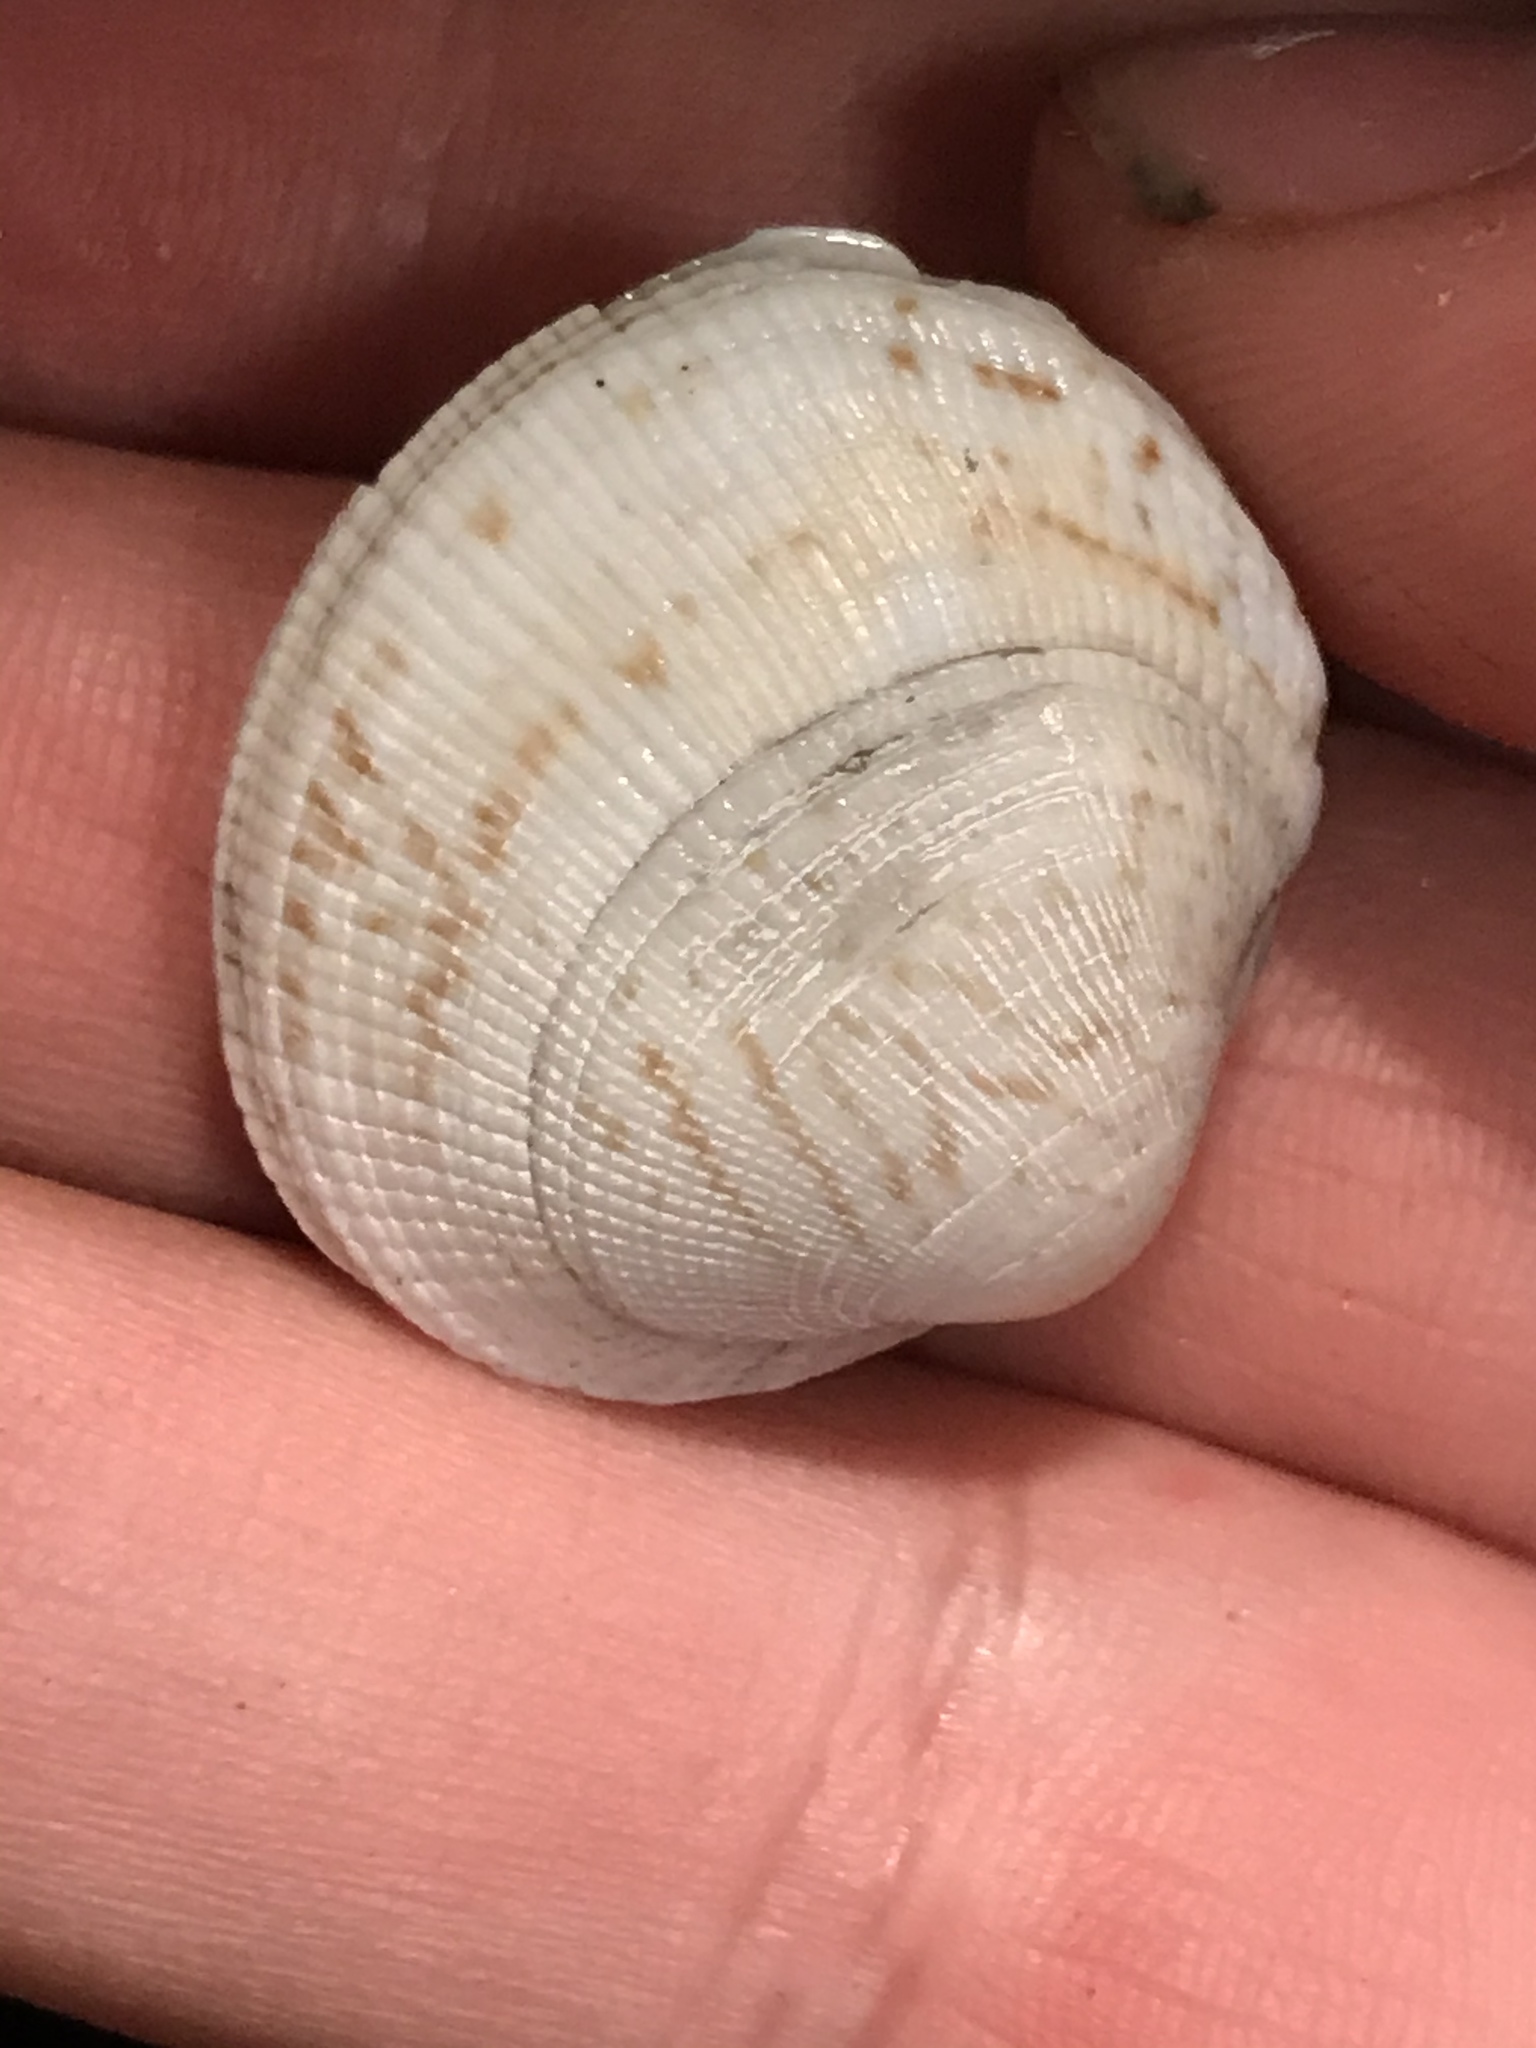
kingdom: Animalia
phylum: Mollusca
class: Bivalvia
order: Venerida
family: Veneridae
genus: Leukoma
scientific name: Leukoma staminea
